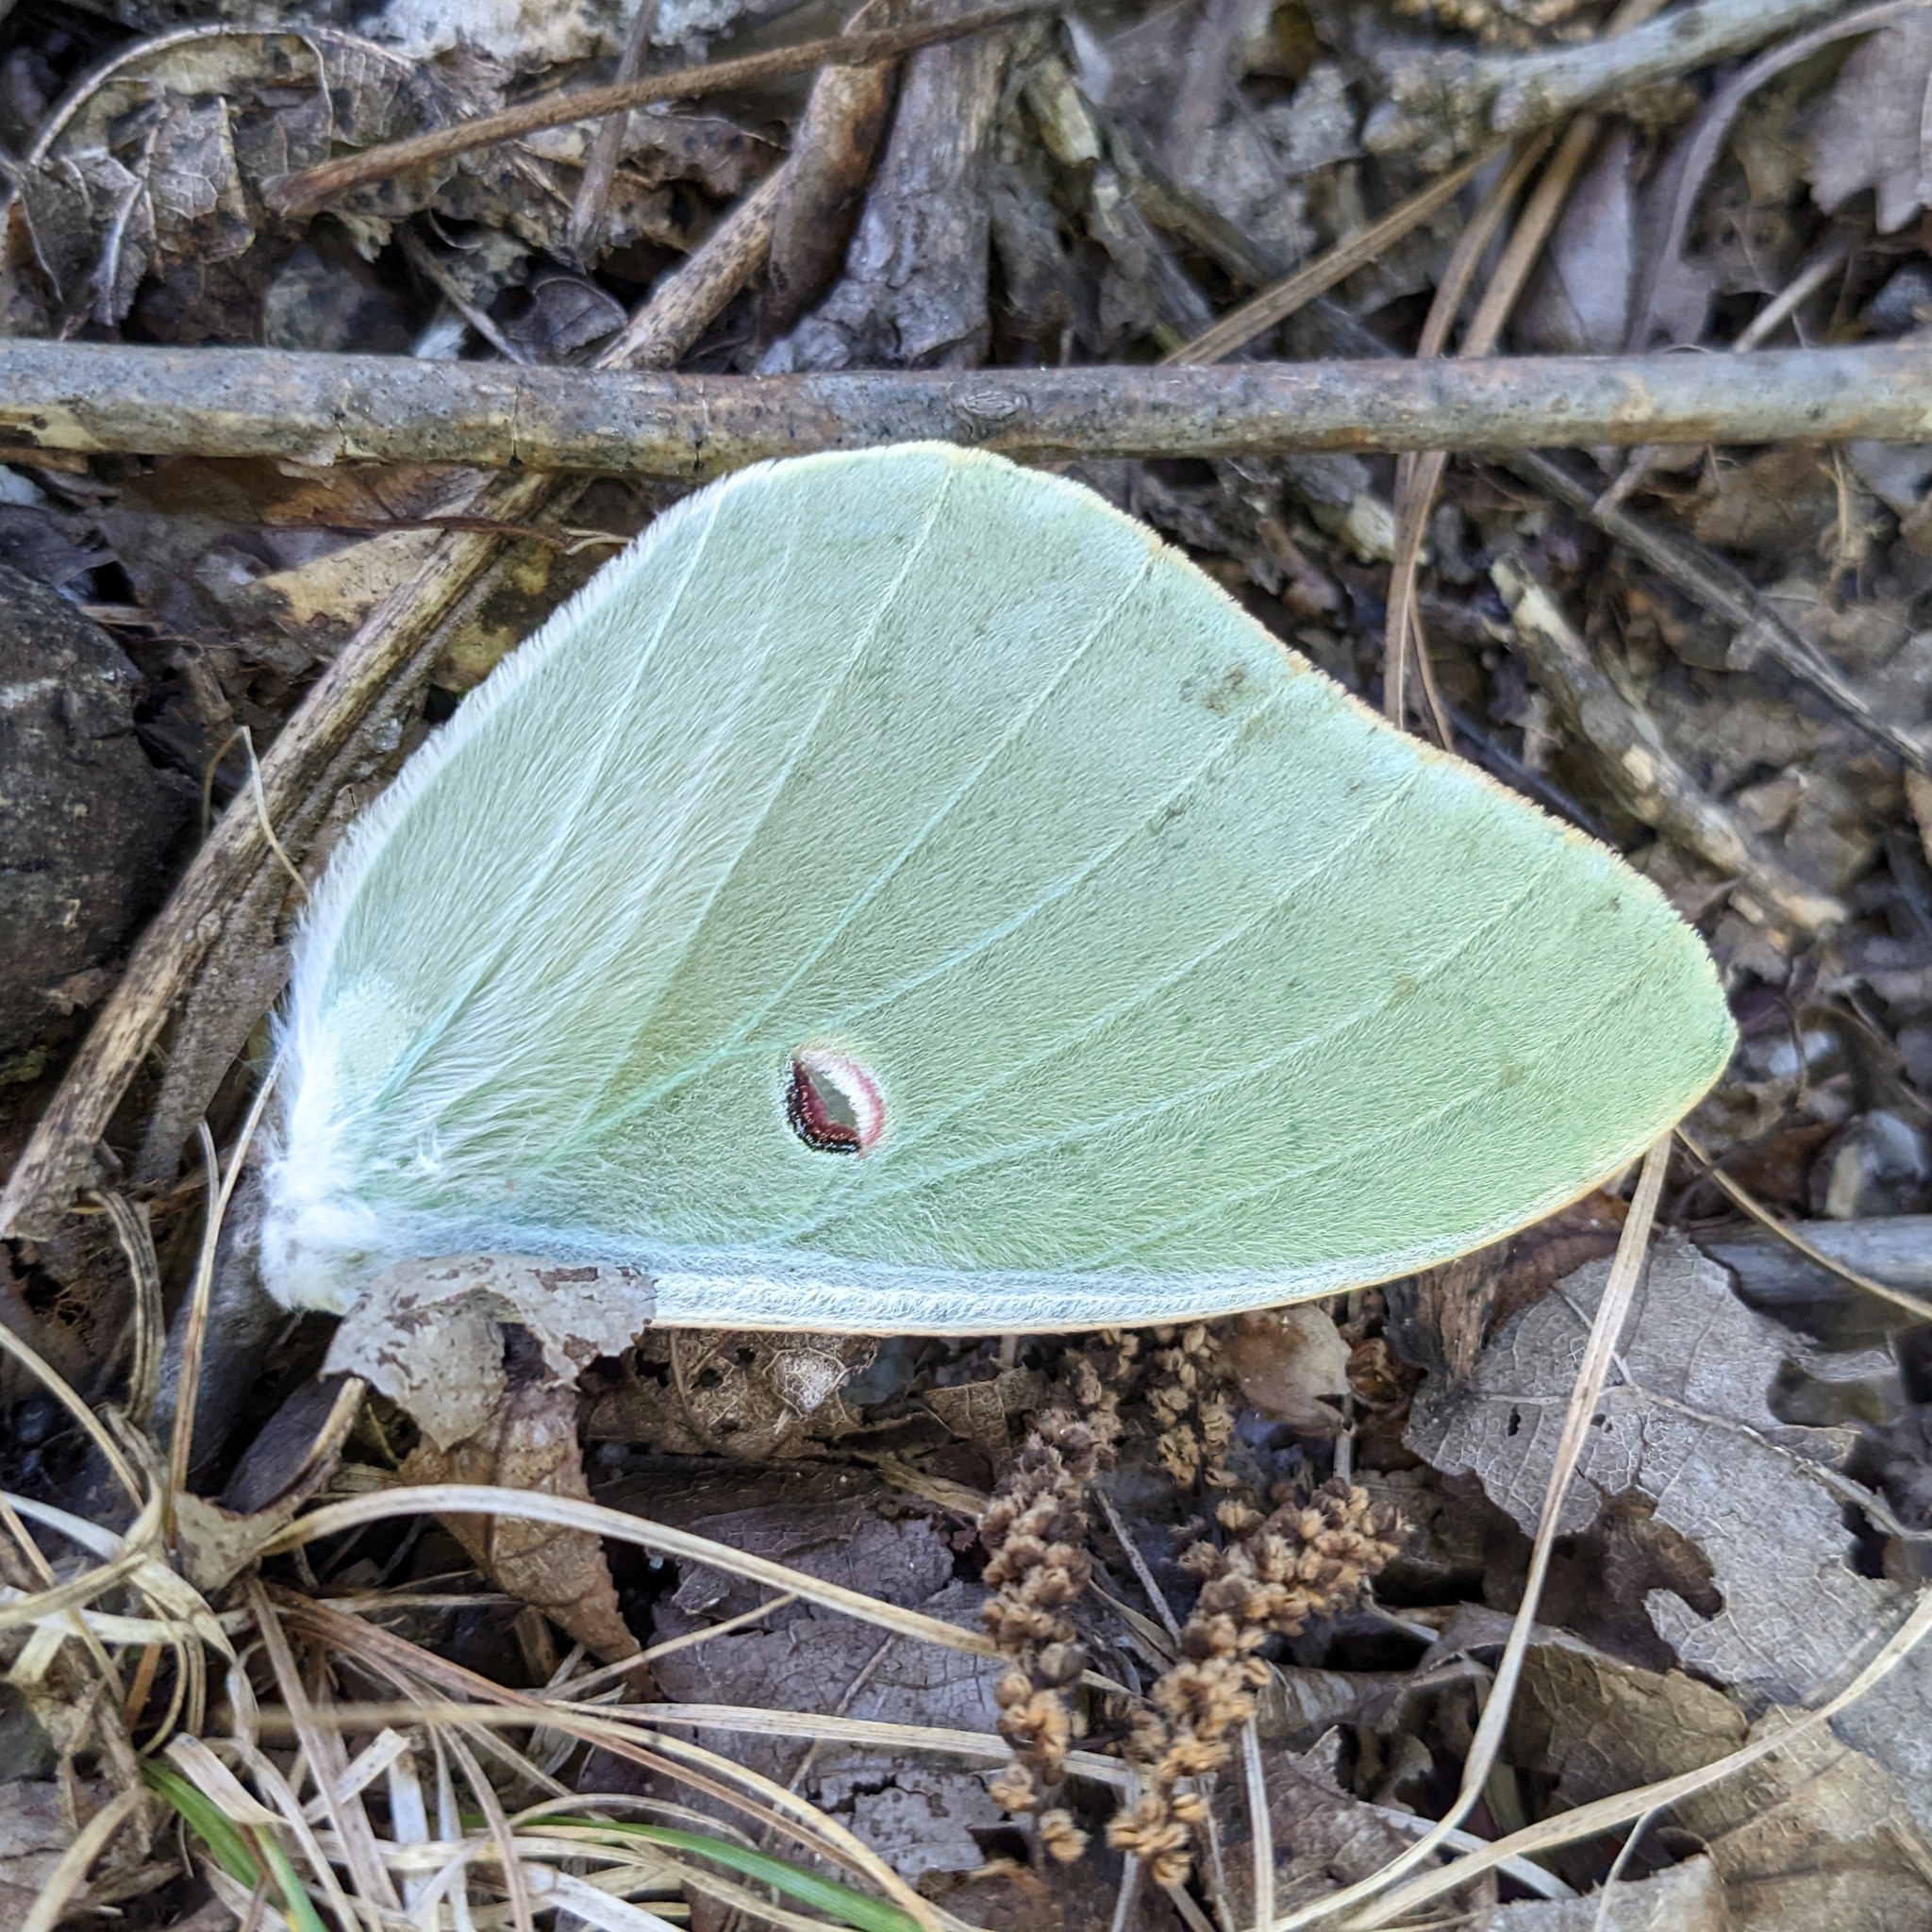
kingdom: Animalia
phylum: Arthropoda
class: Insecta
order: Lepidoptera
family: Saturniidae
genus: Actias
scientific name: Actias luna
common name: Luna moth
